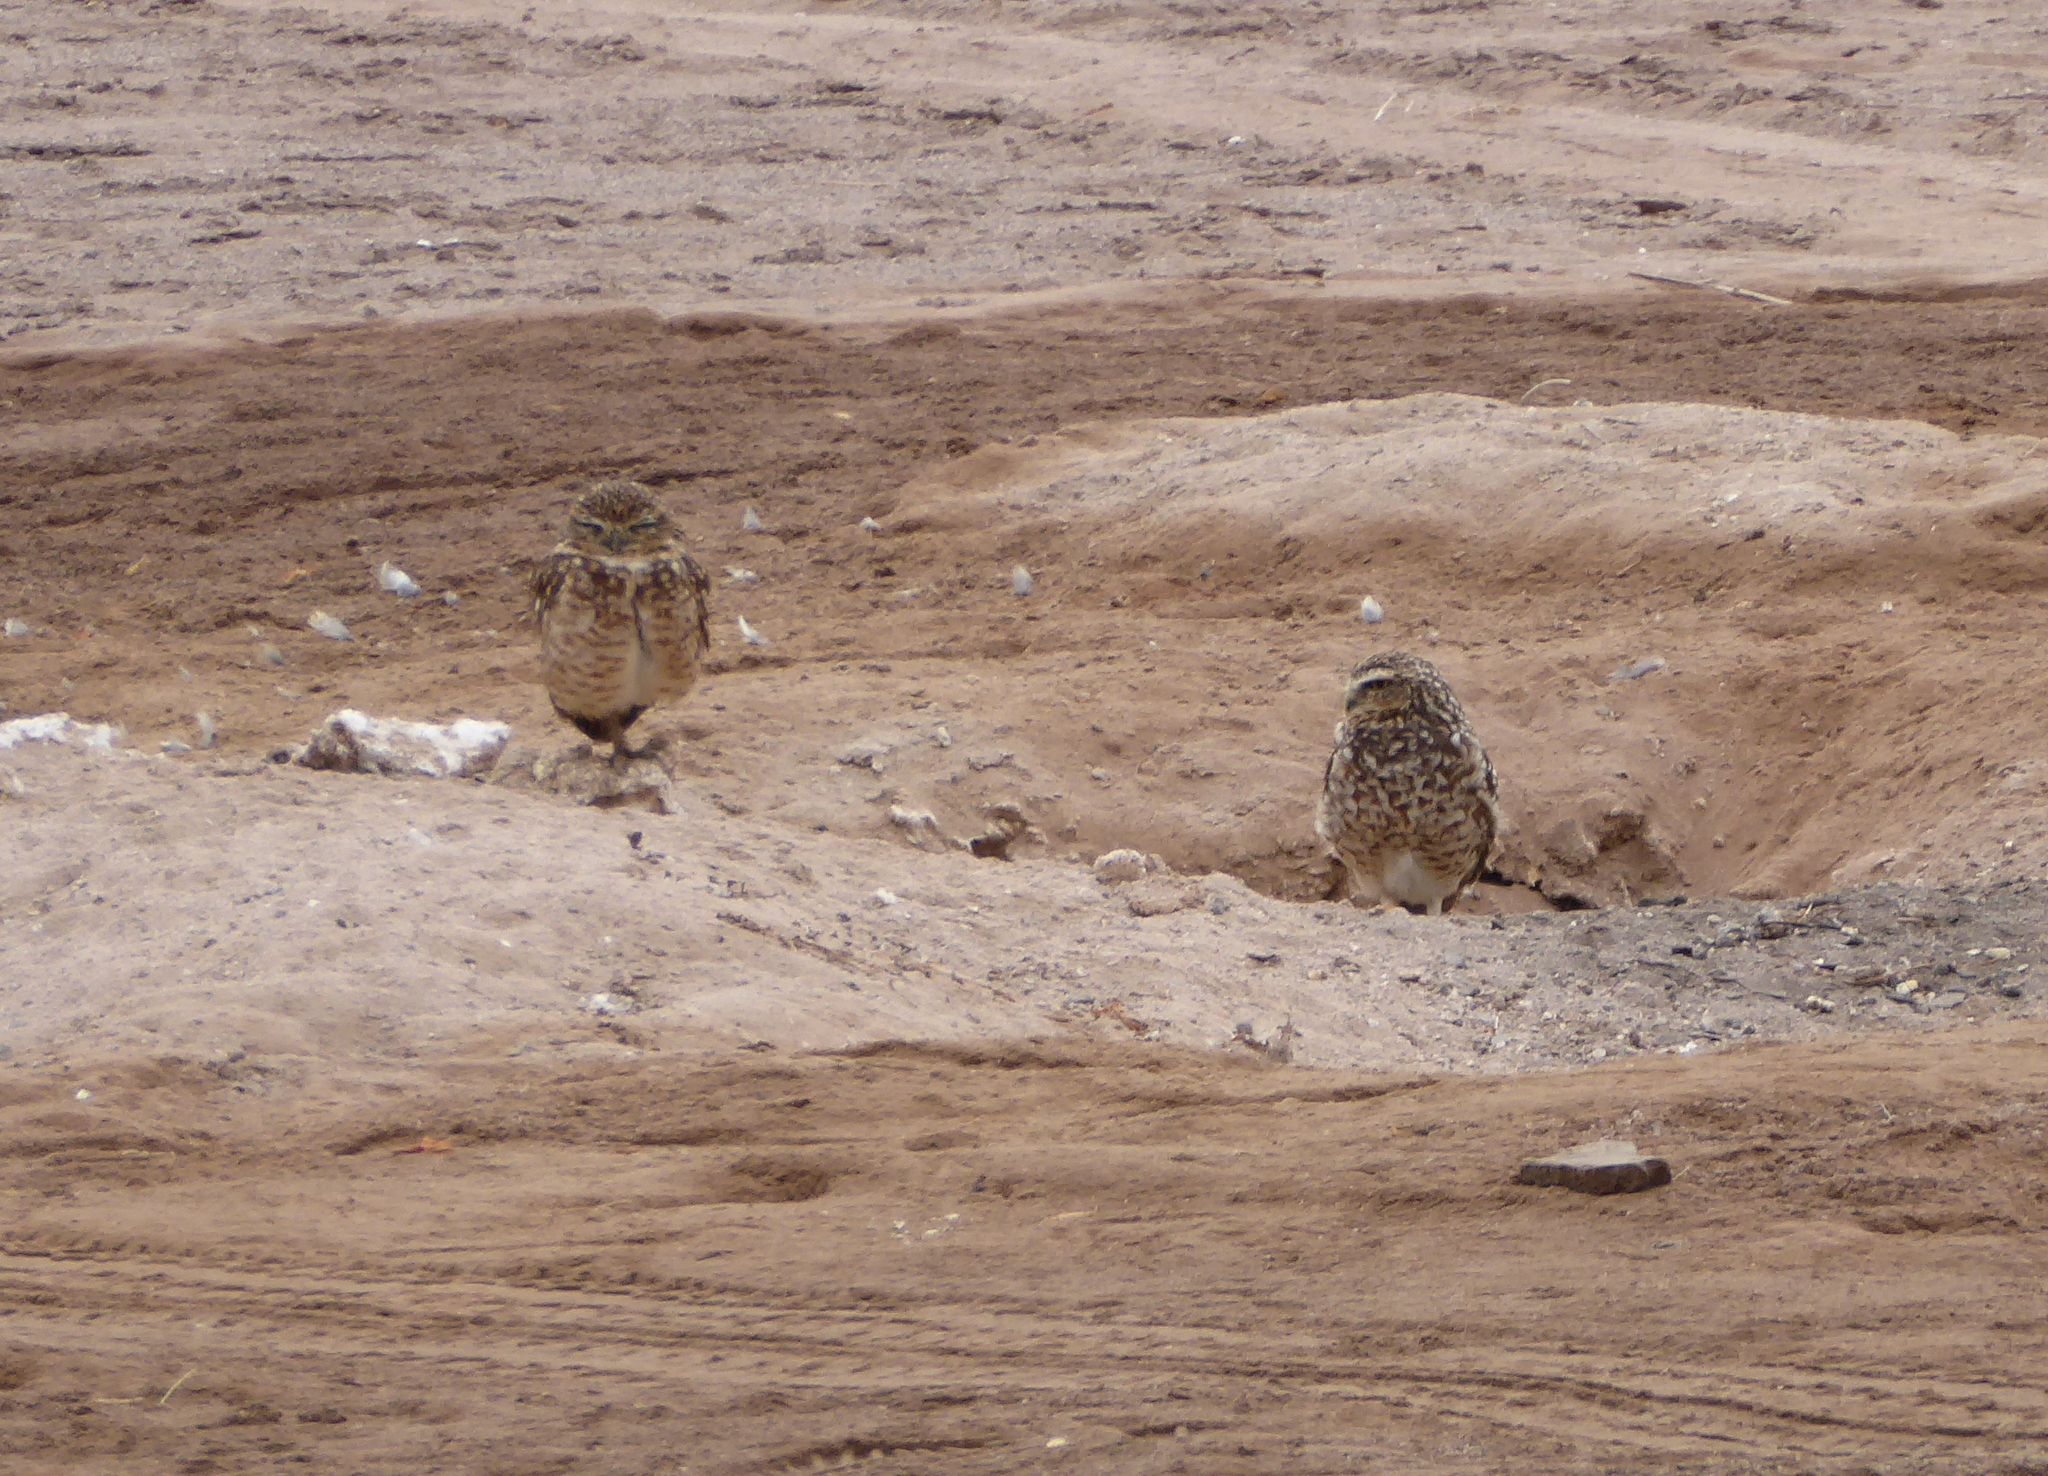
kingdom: Animalia
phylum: Chordata
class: Aves
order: Strigiformes
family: Strigidae
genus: Athene
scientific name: Athene cunicularia
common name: Burrowing owl
